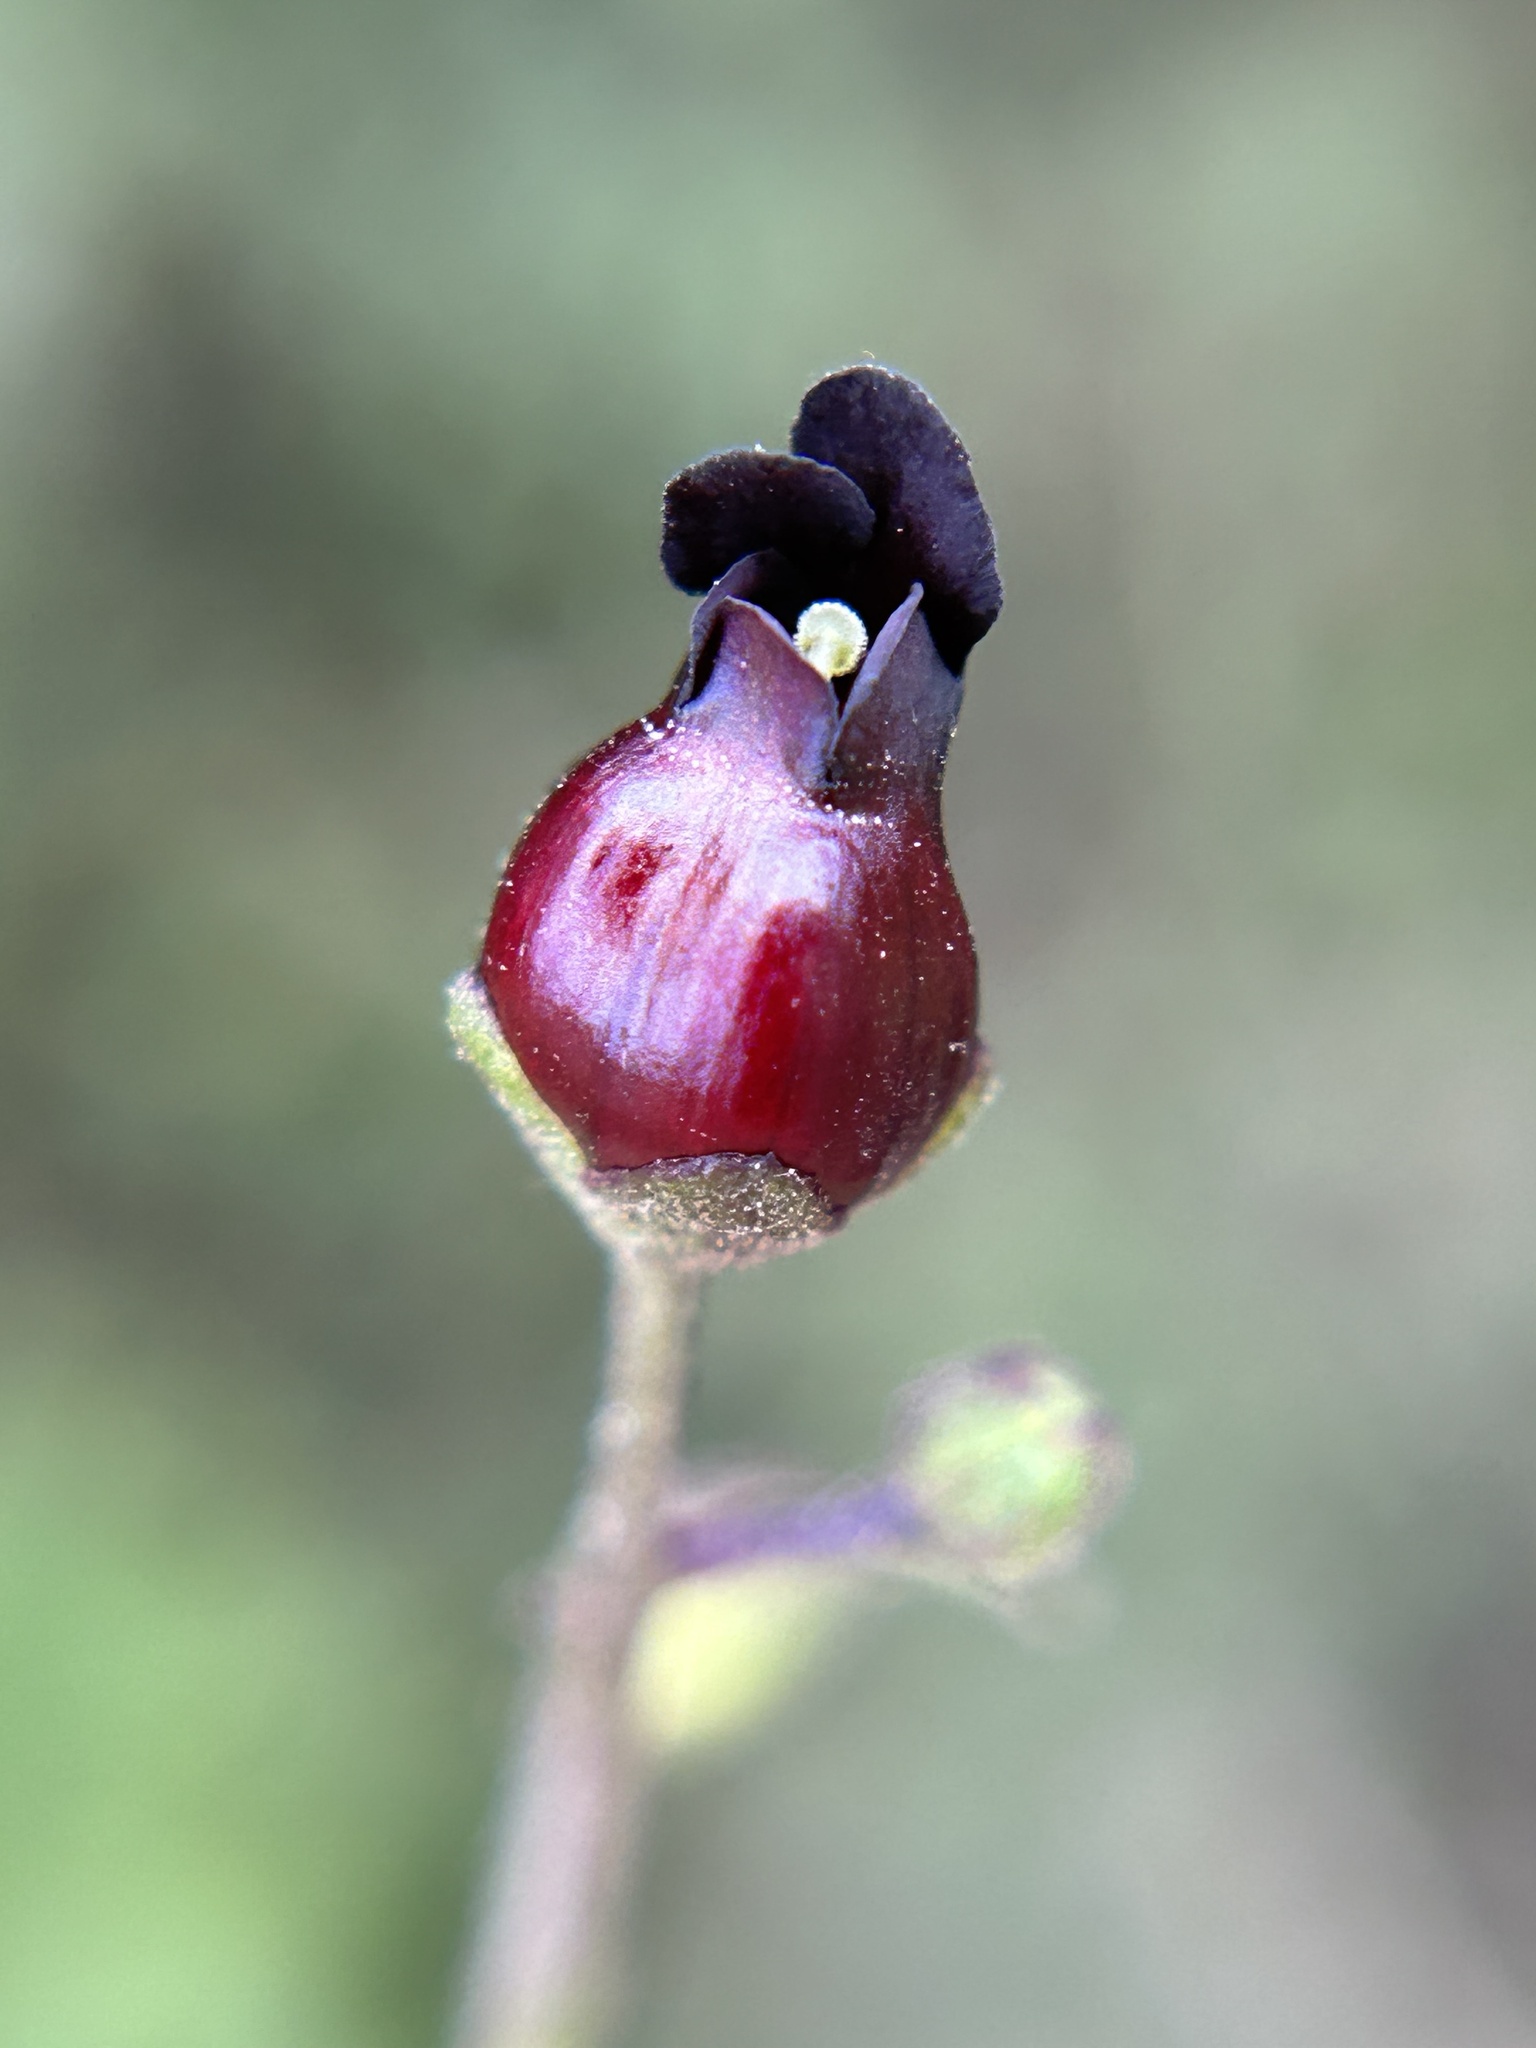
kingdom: Plantae
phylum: Tracheophyta
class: Magnoliopsida
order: Lamiales
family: Scrophulariaceae
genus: Scrophularia
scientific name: Scrophularia atrata
